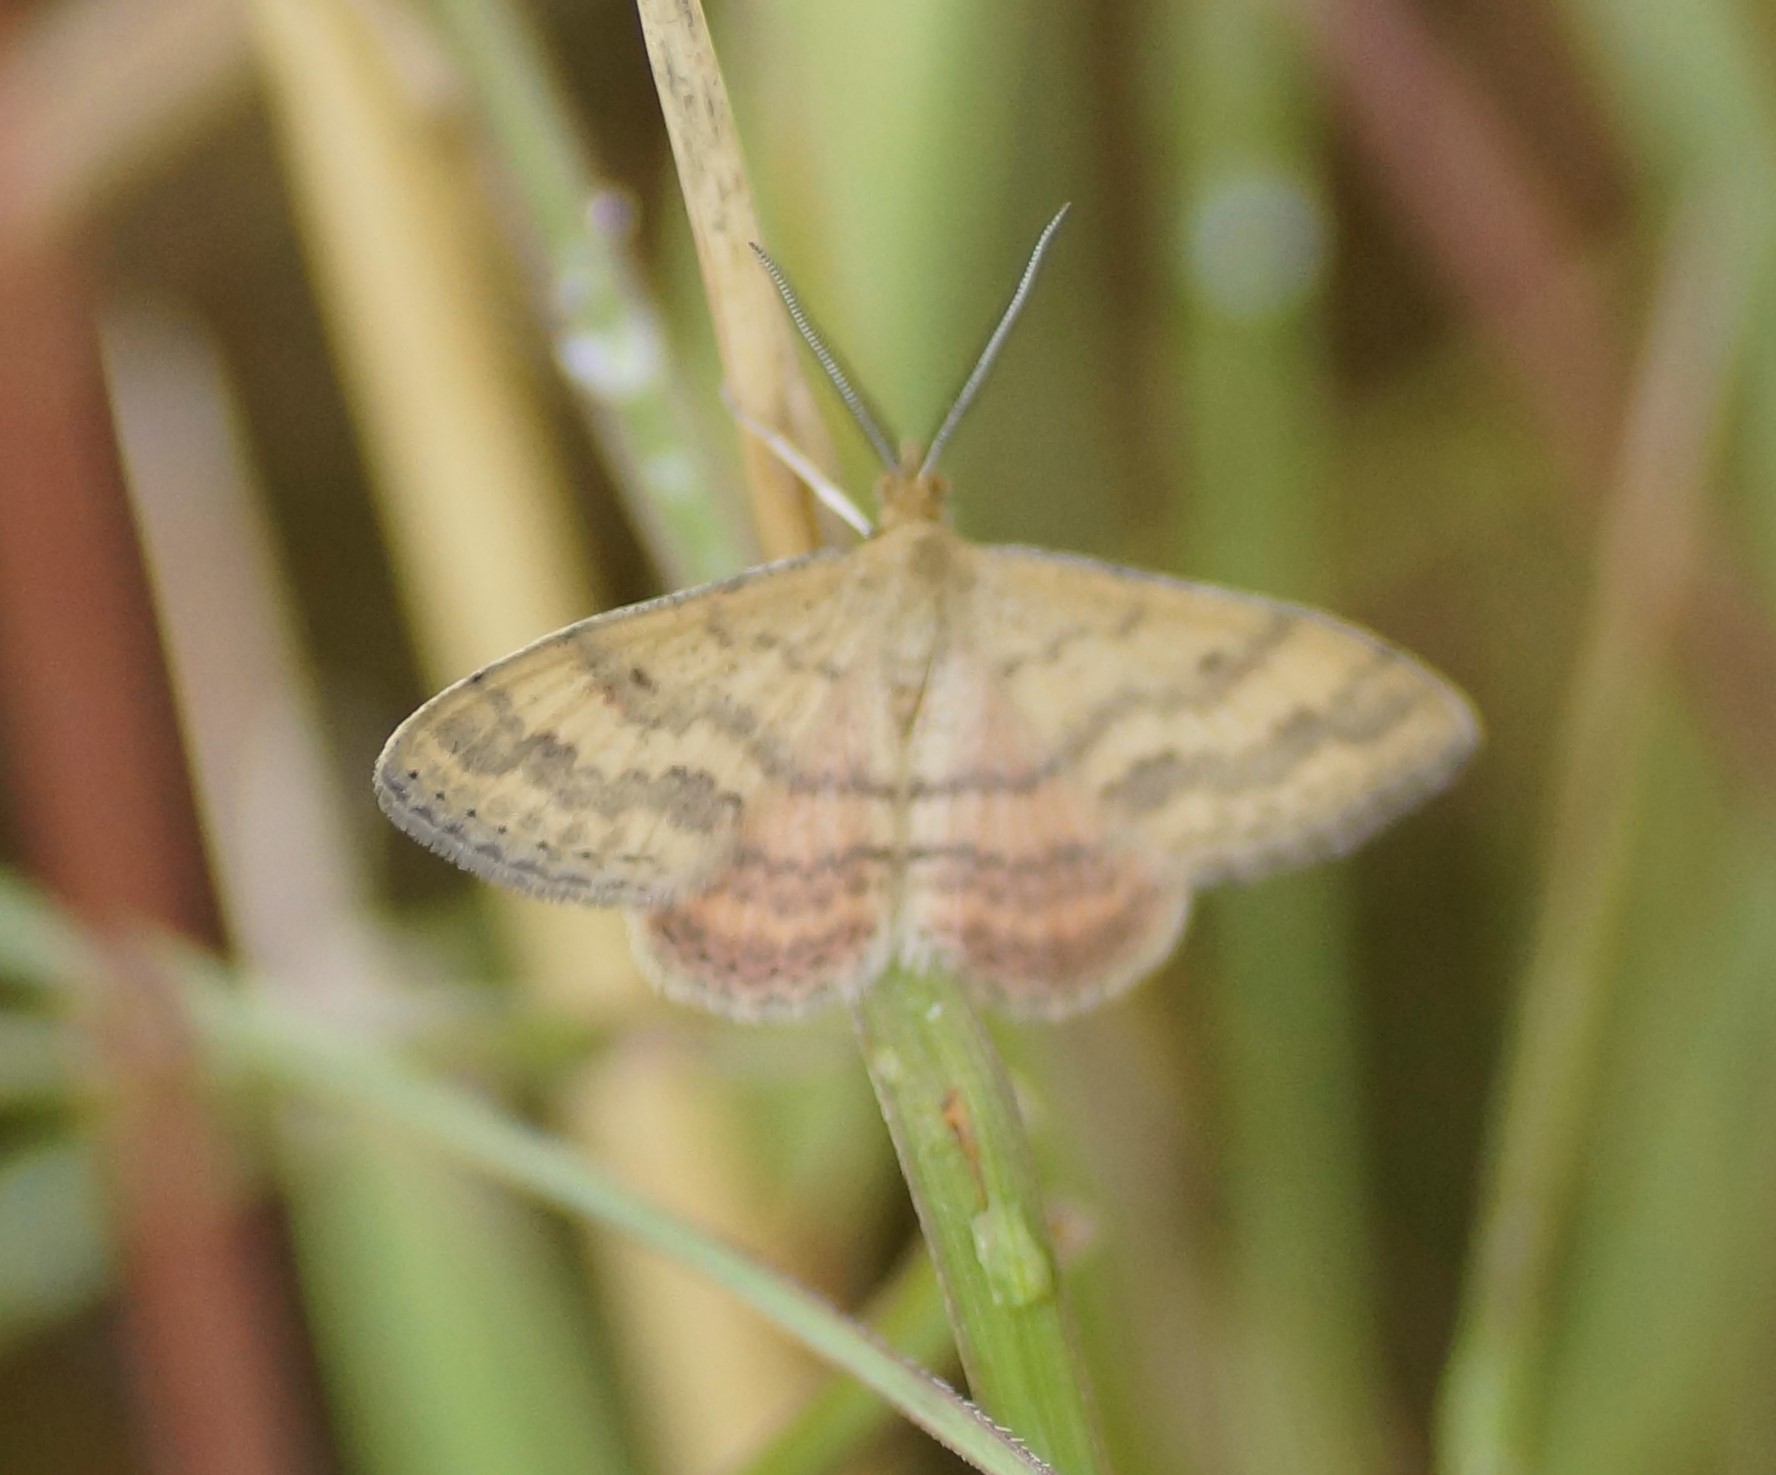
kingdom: Animalia
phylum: Arthropoda
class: Insecta
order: Lepidoptera
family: Geometridae
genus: Scopula
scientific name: Scopula rubraria
